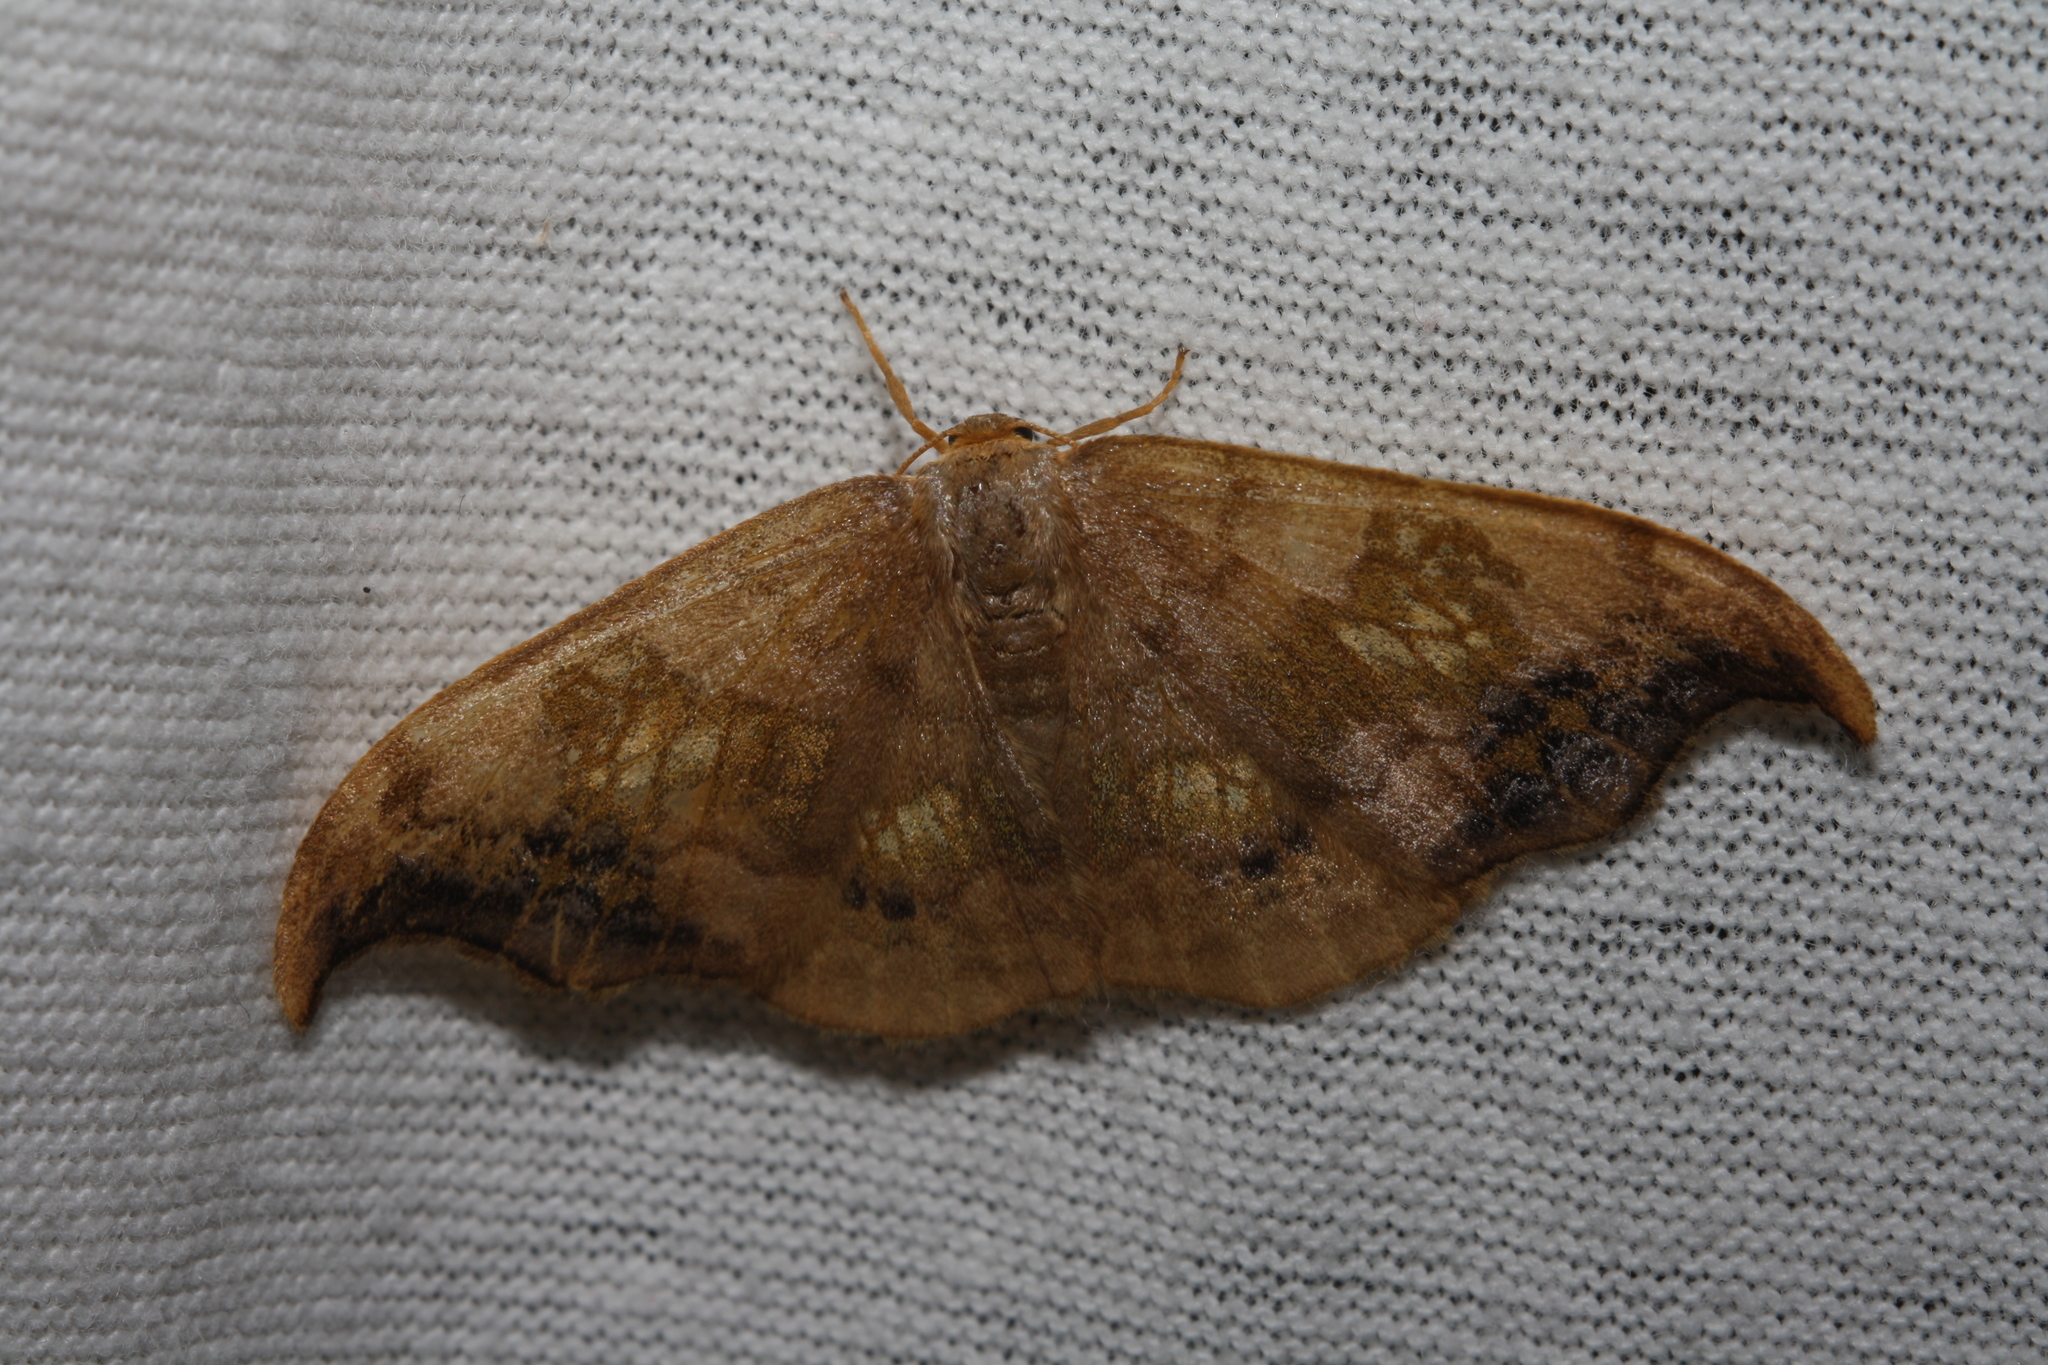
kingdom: Animalia
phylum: Arthropoda
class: Insecta
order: Lepidoptera
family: Drepanidae
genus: Sabra
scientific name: Sabra harpagula
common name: Scarce hook-tip
